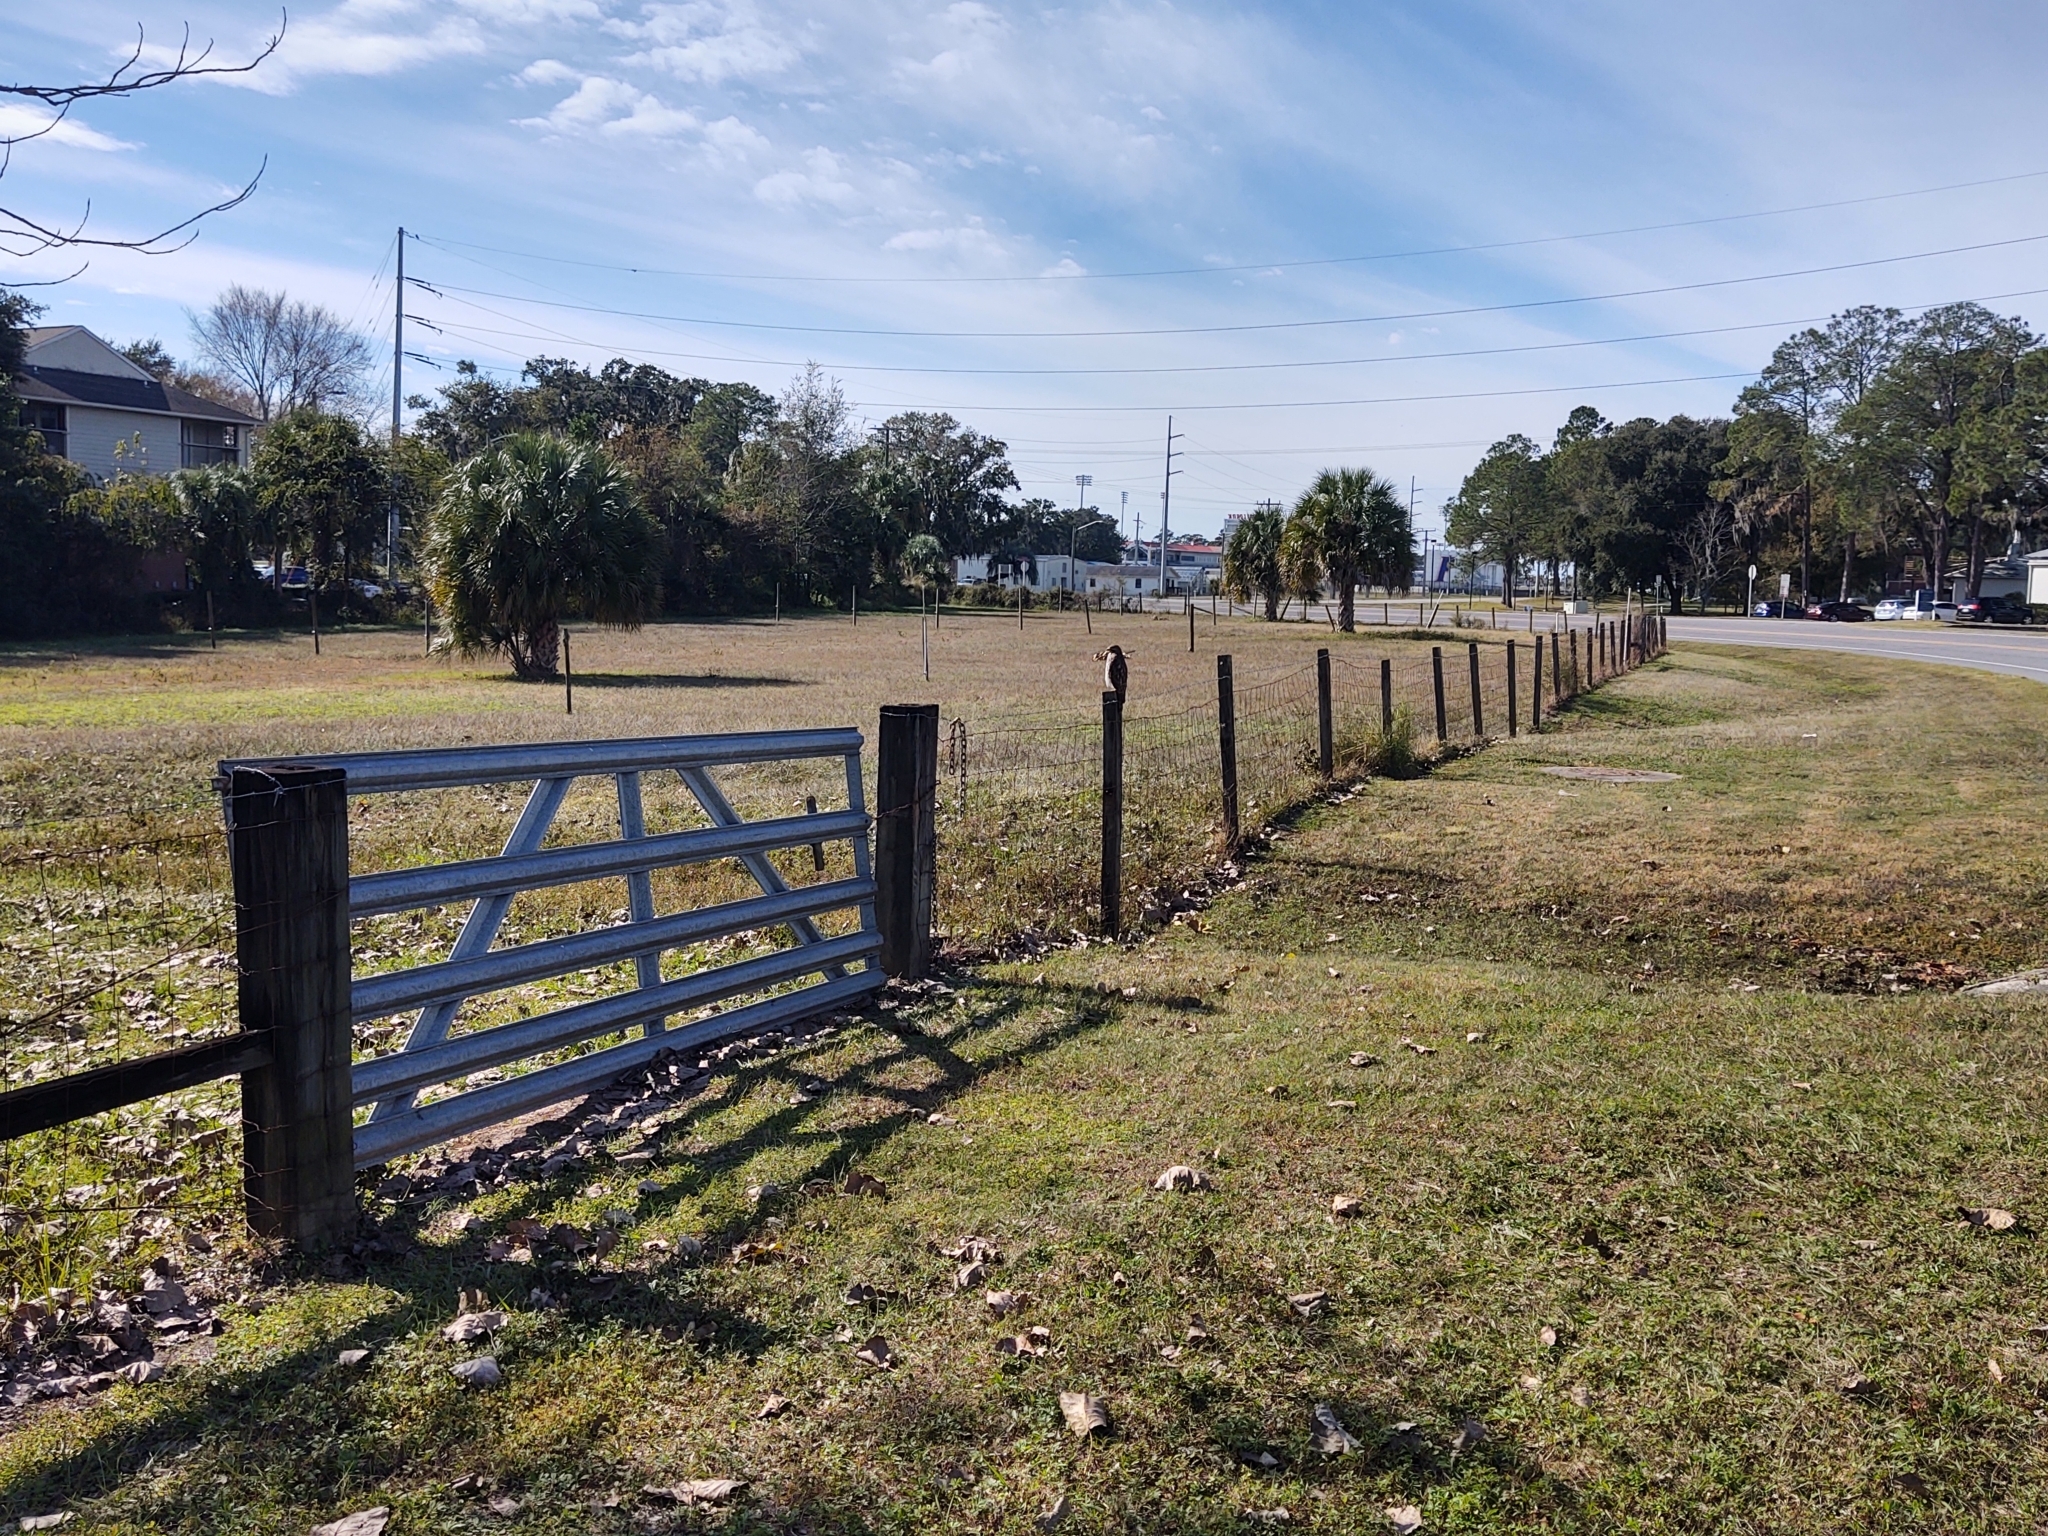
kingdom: Animalia
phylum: Chordata
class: Aves
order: Accipitriformes
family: Accipitridae
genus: Buteo
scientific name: Buteo lineatus
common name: Red-shouldered hawk
